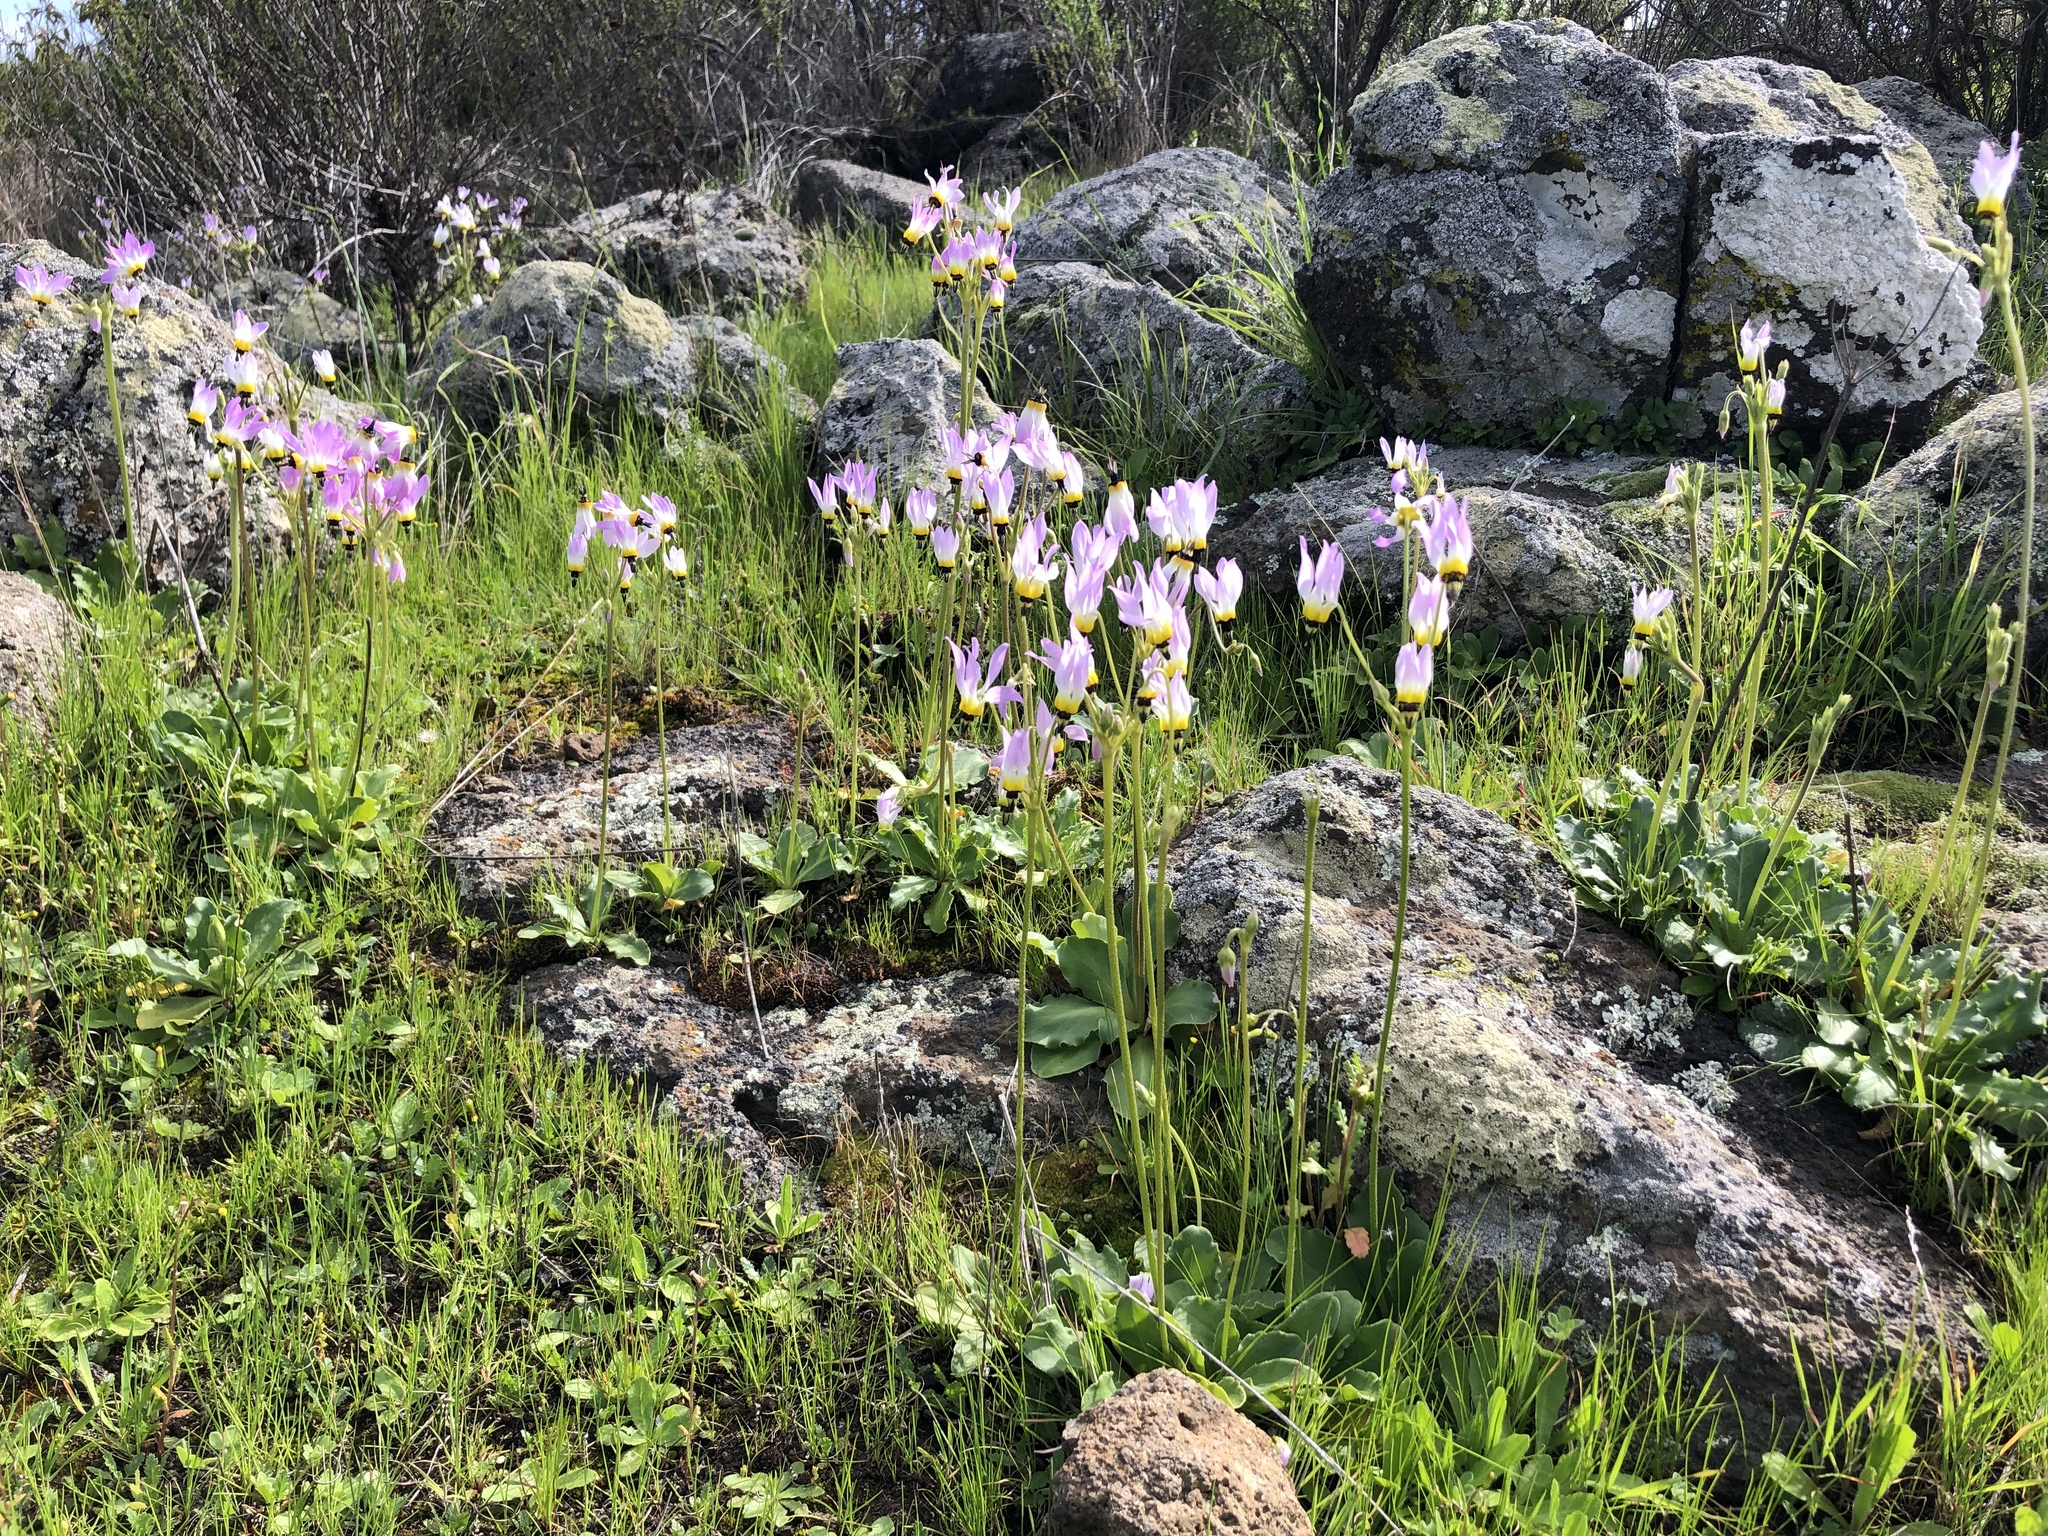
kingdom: Plantae
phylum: Tracheophyta
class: Magnoliopsida
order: Ericales
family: Primulaceae
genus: Dodecatheon
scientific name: Dodecatheon clevelandii
